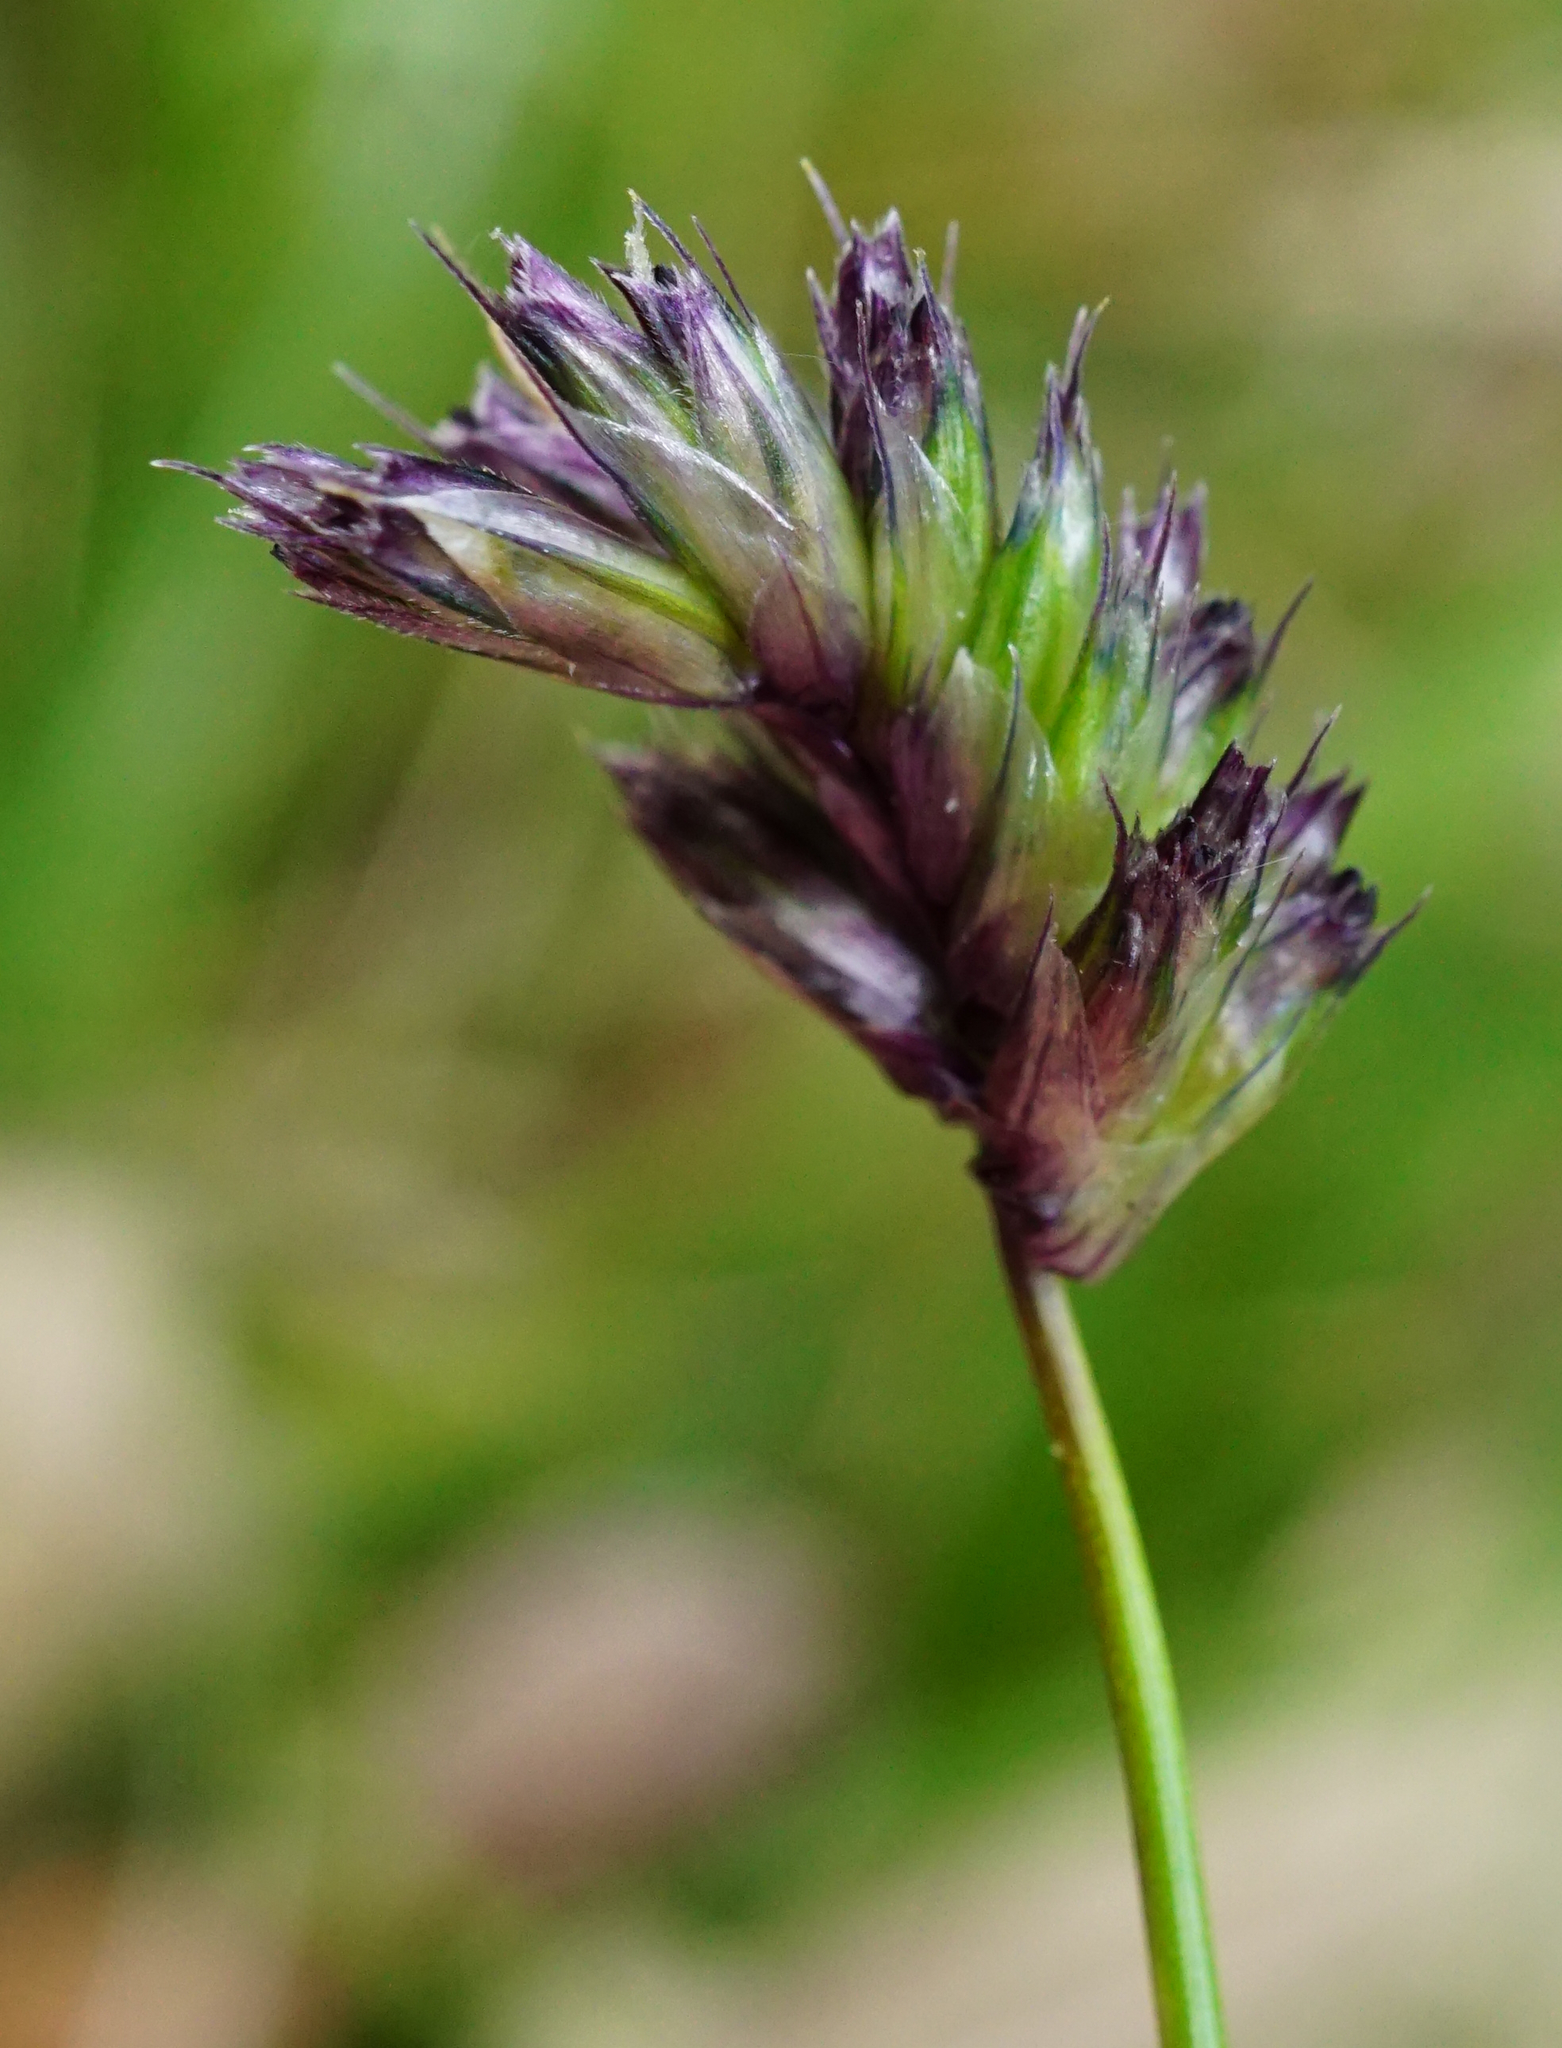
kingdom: Plantae
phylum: Tracheophyta
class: Liliopsida
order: Poales
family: Poaceae
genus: Sesleria
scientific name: Sesleria uliginosa
